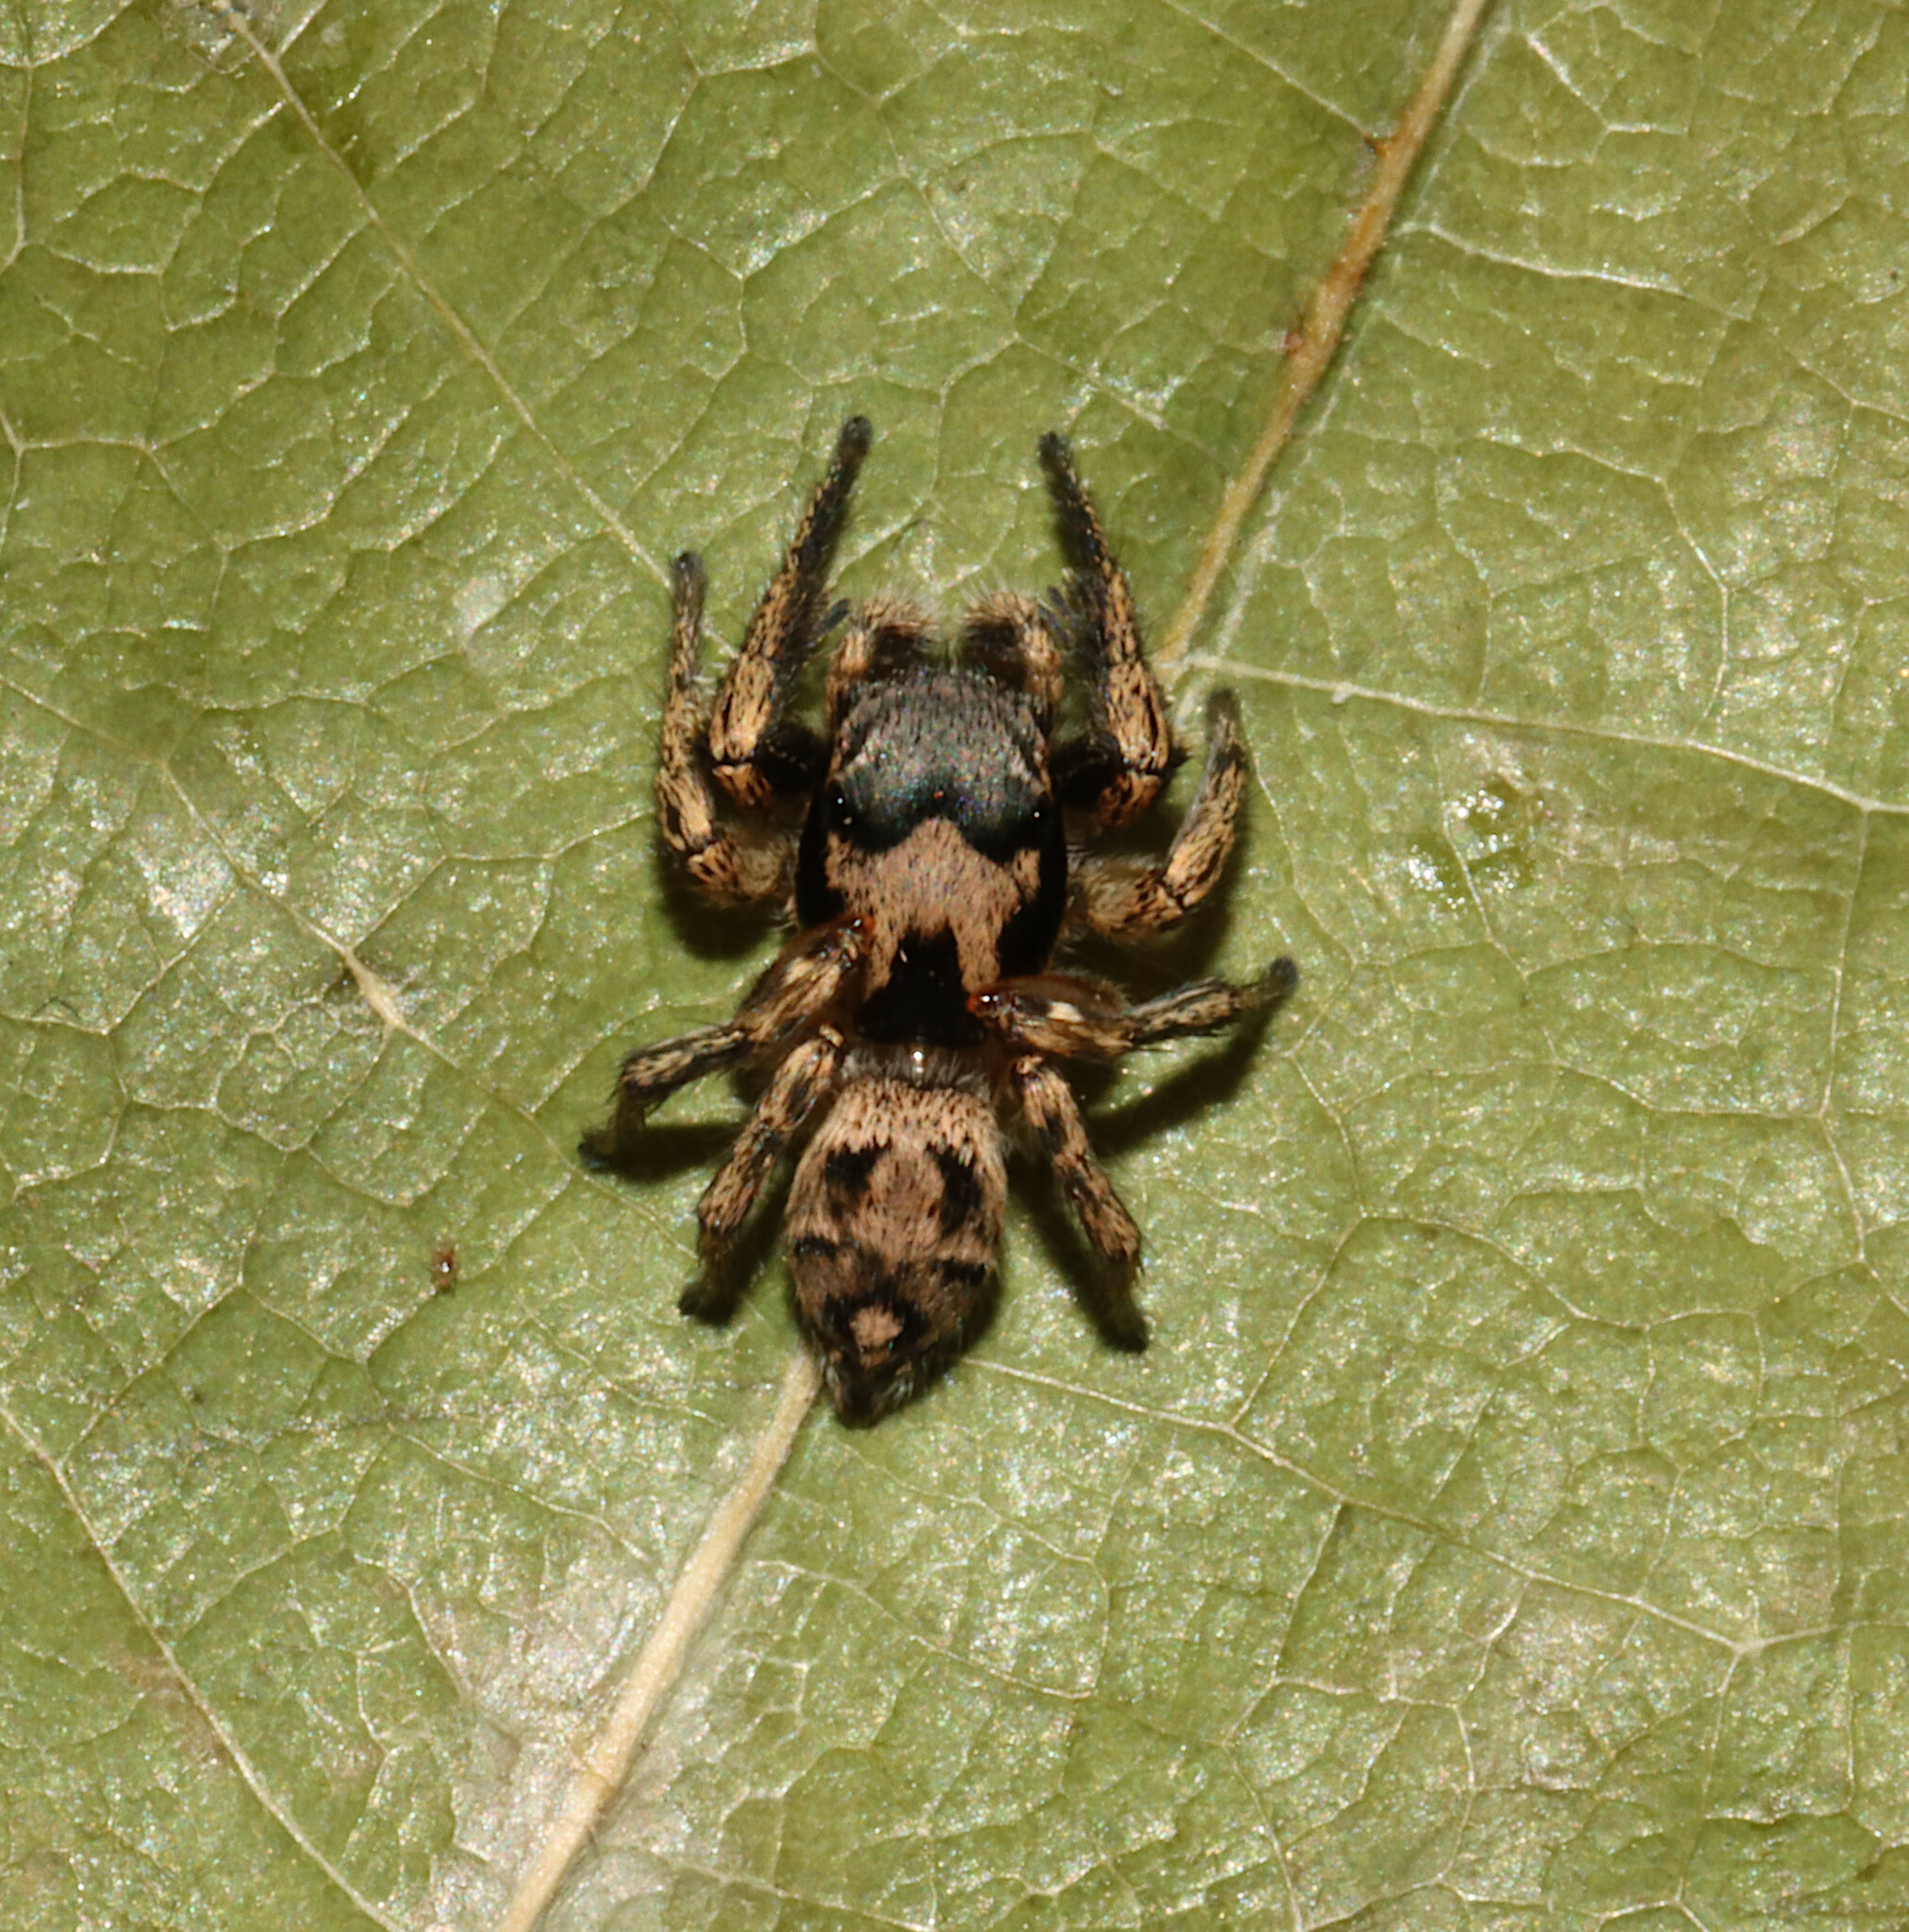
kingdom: Animalia
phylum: Arthropoda
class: Arachnida
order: Araneae
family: Salticidae
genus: Habronattus
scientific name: Habronattus coecatus
